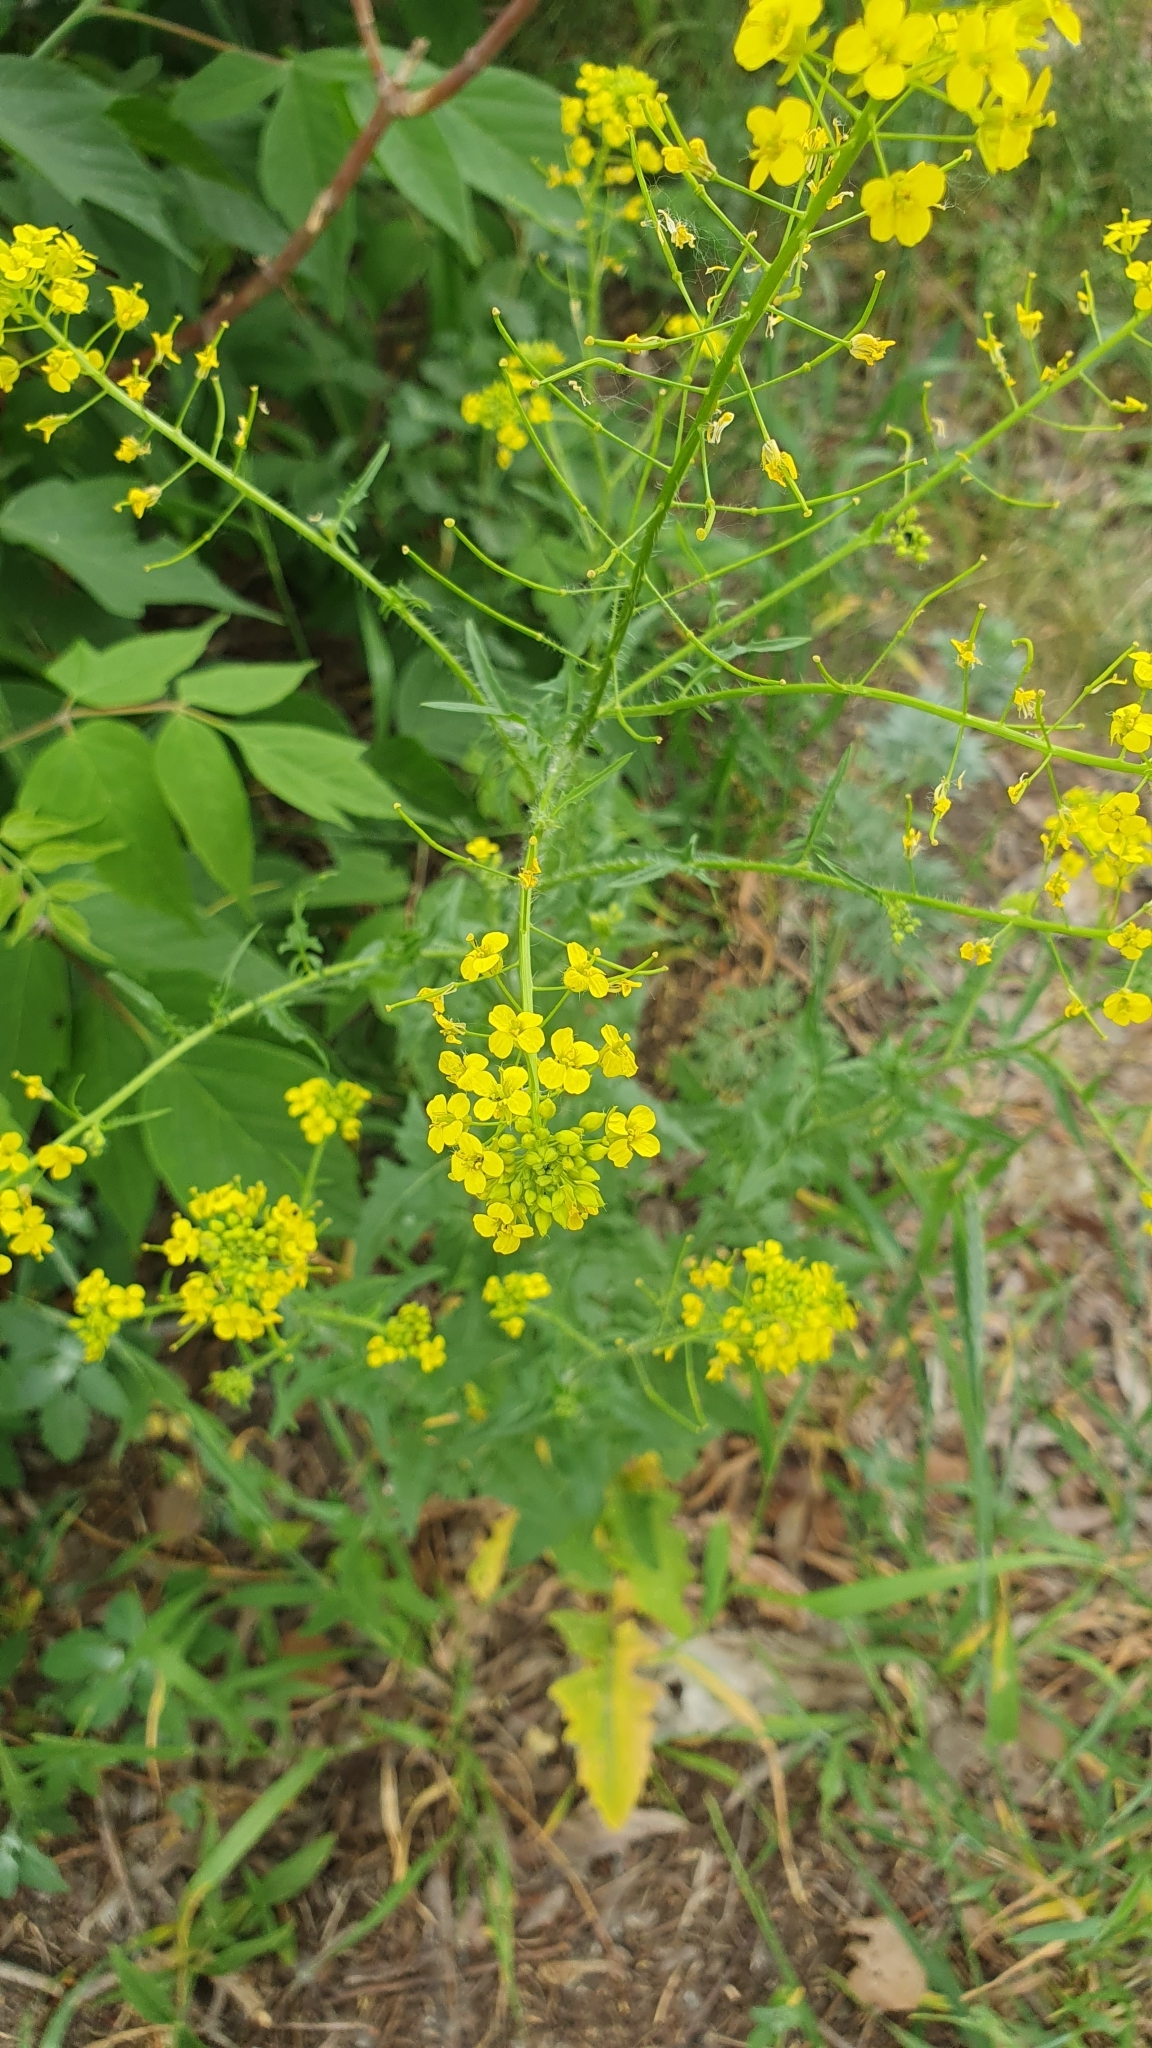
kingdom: Plantae
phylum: Tracheophyta
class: Magnoliopsida
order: Brassicales
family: Brassicaceae
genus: Sisymbrium
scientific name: Sisymbrium loeselii
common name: False london-rocket
